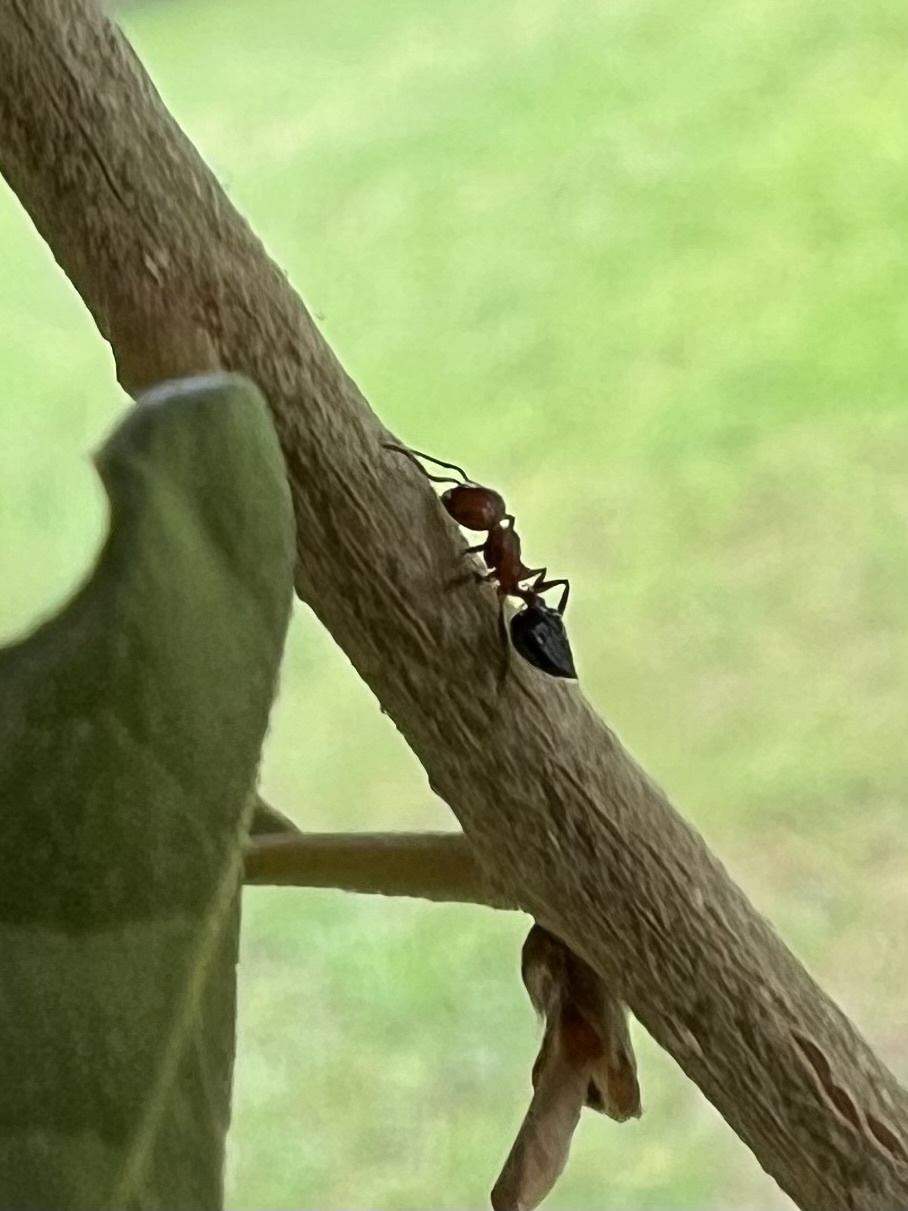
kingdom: Animalia
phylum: Arthropoda
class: Insecta
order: Hymenoptera
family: Formicidae
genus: Crematogaster
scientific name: Crematogaster laeviuscula
